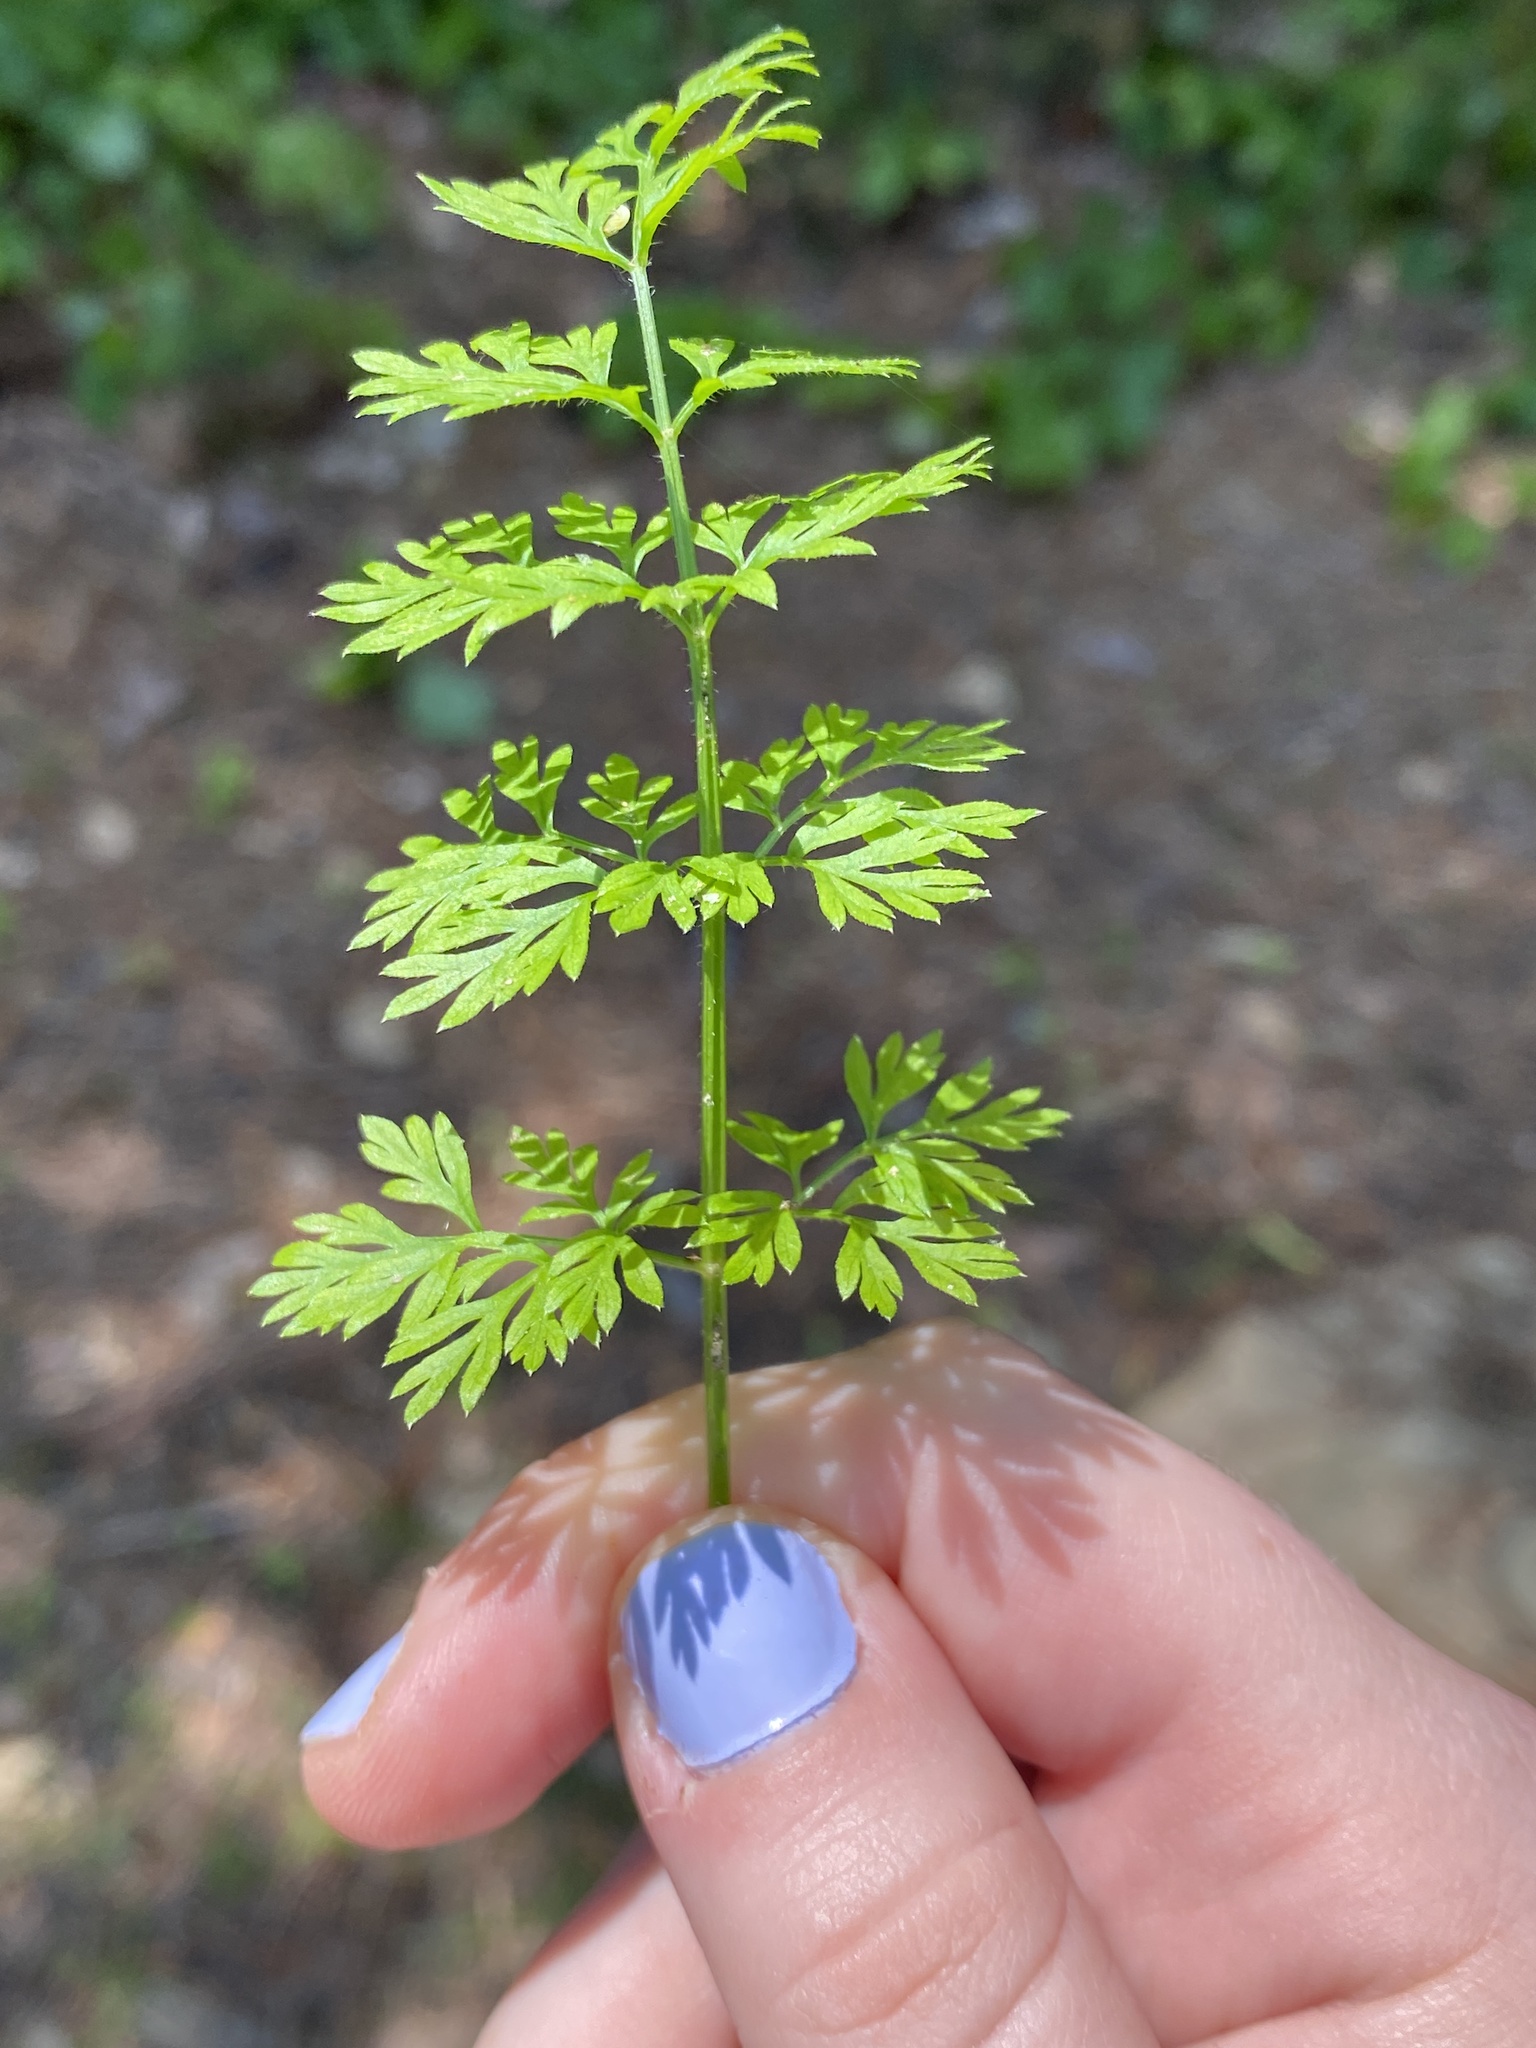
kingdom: Plantae
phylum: Tracheophyta
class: Magnoliopsida
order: Apiales
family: Apiaceae
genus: Daucus
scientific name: Daucus carota
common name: Wild carrot
